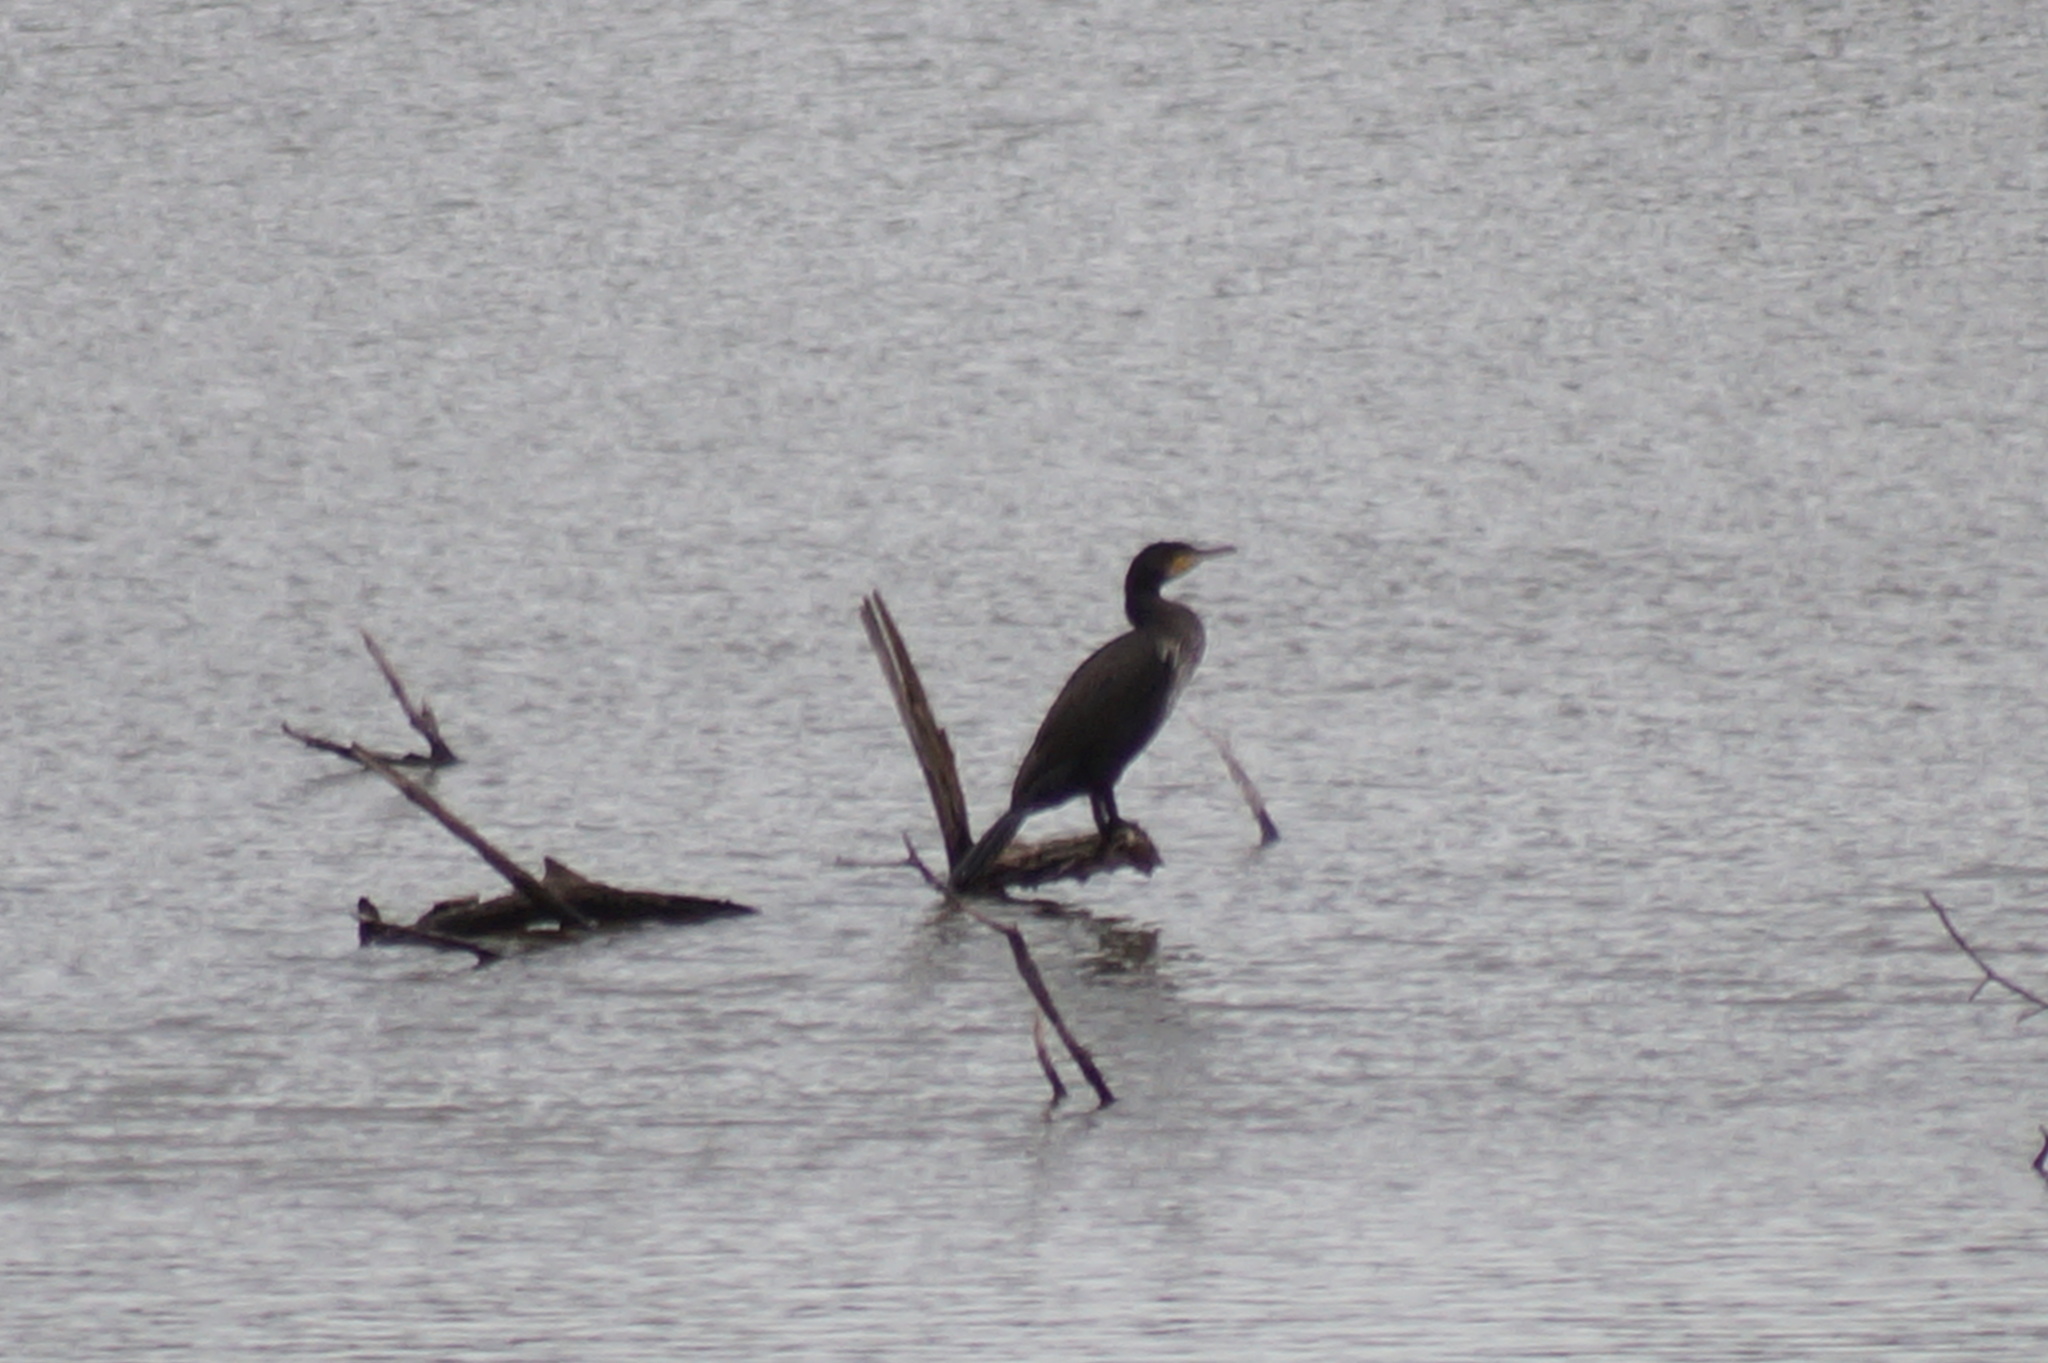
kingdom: Animalia
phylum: Chordata
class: Aves
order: Suliformes
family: Phalacrocoracidae
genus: Phalacrocorax
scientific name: Phalacrocorax carbo
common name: Great cormorant
